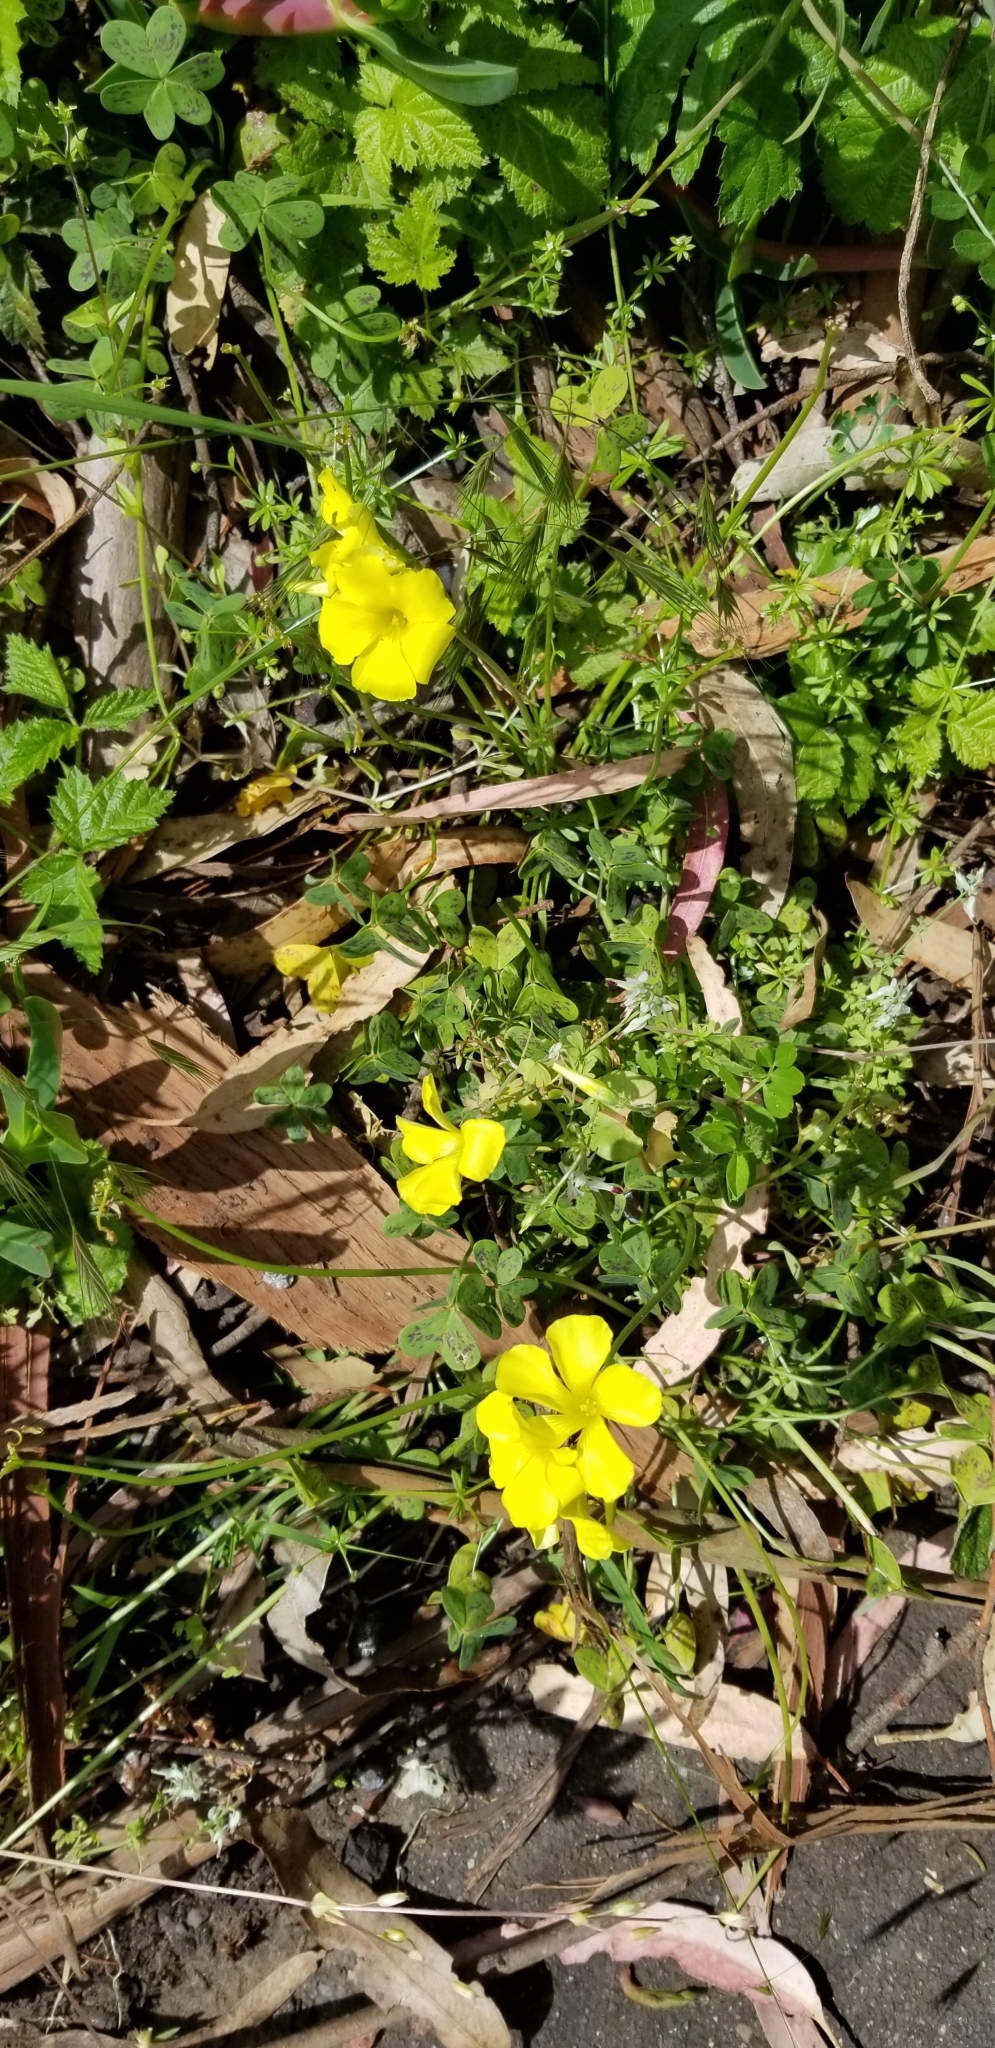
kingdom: Plantae
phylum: Tracheophyta
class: Magnoliopsida
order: Oxalidales
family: Oxalidaceae
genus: Oxalis
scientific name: Oxalis pes-caprae
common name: Bermuda-buttercup
